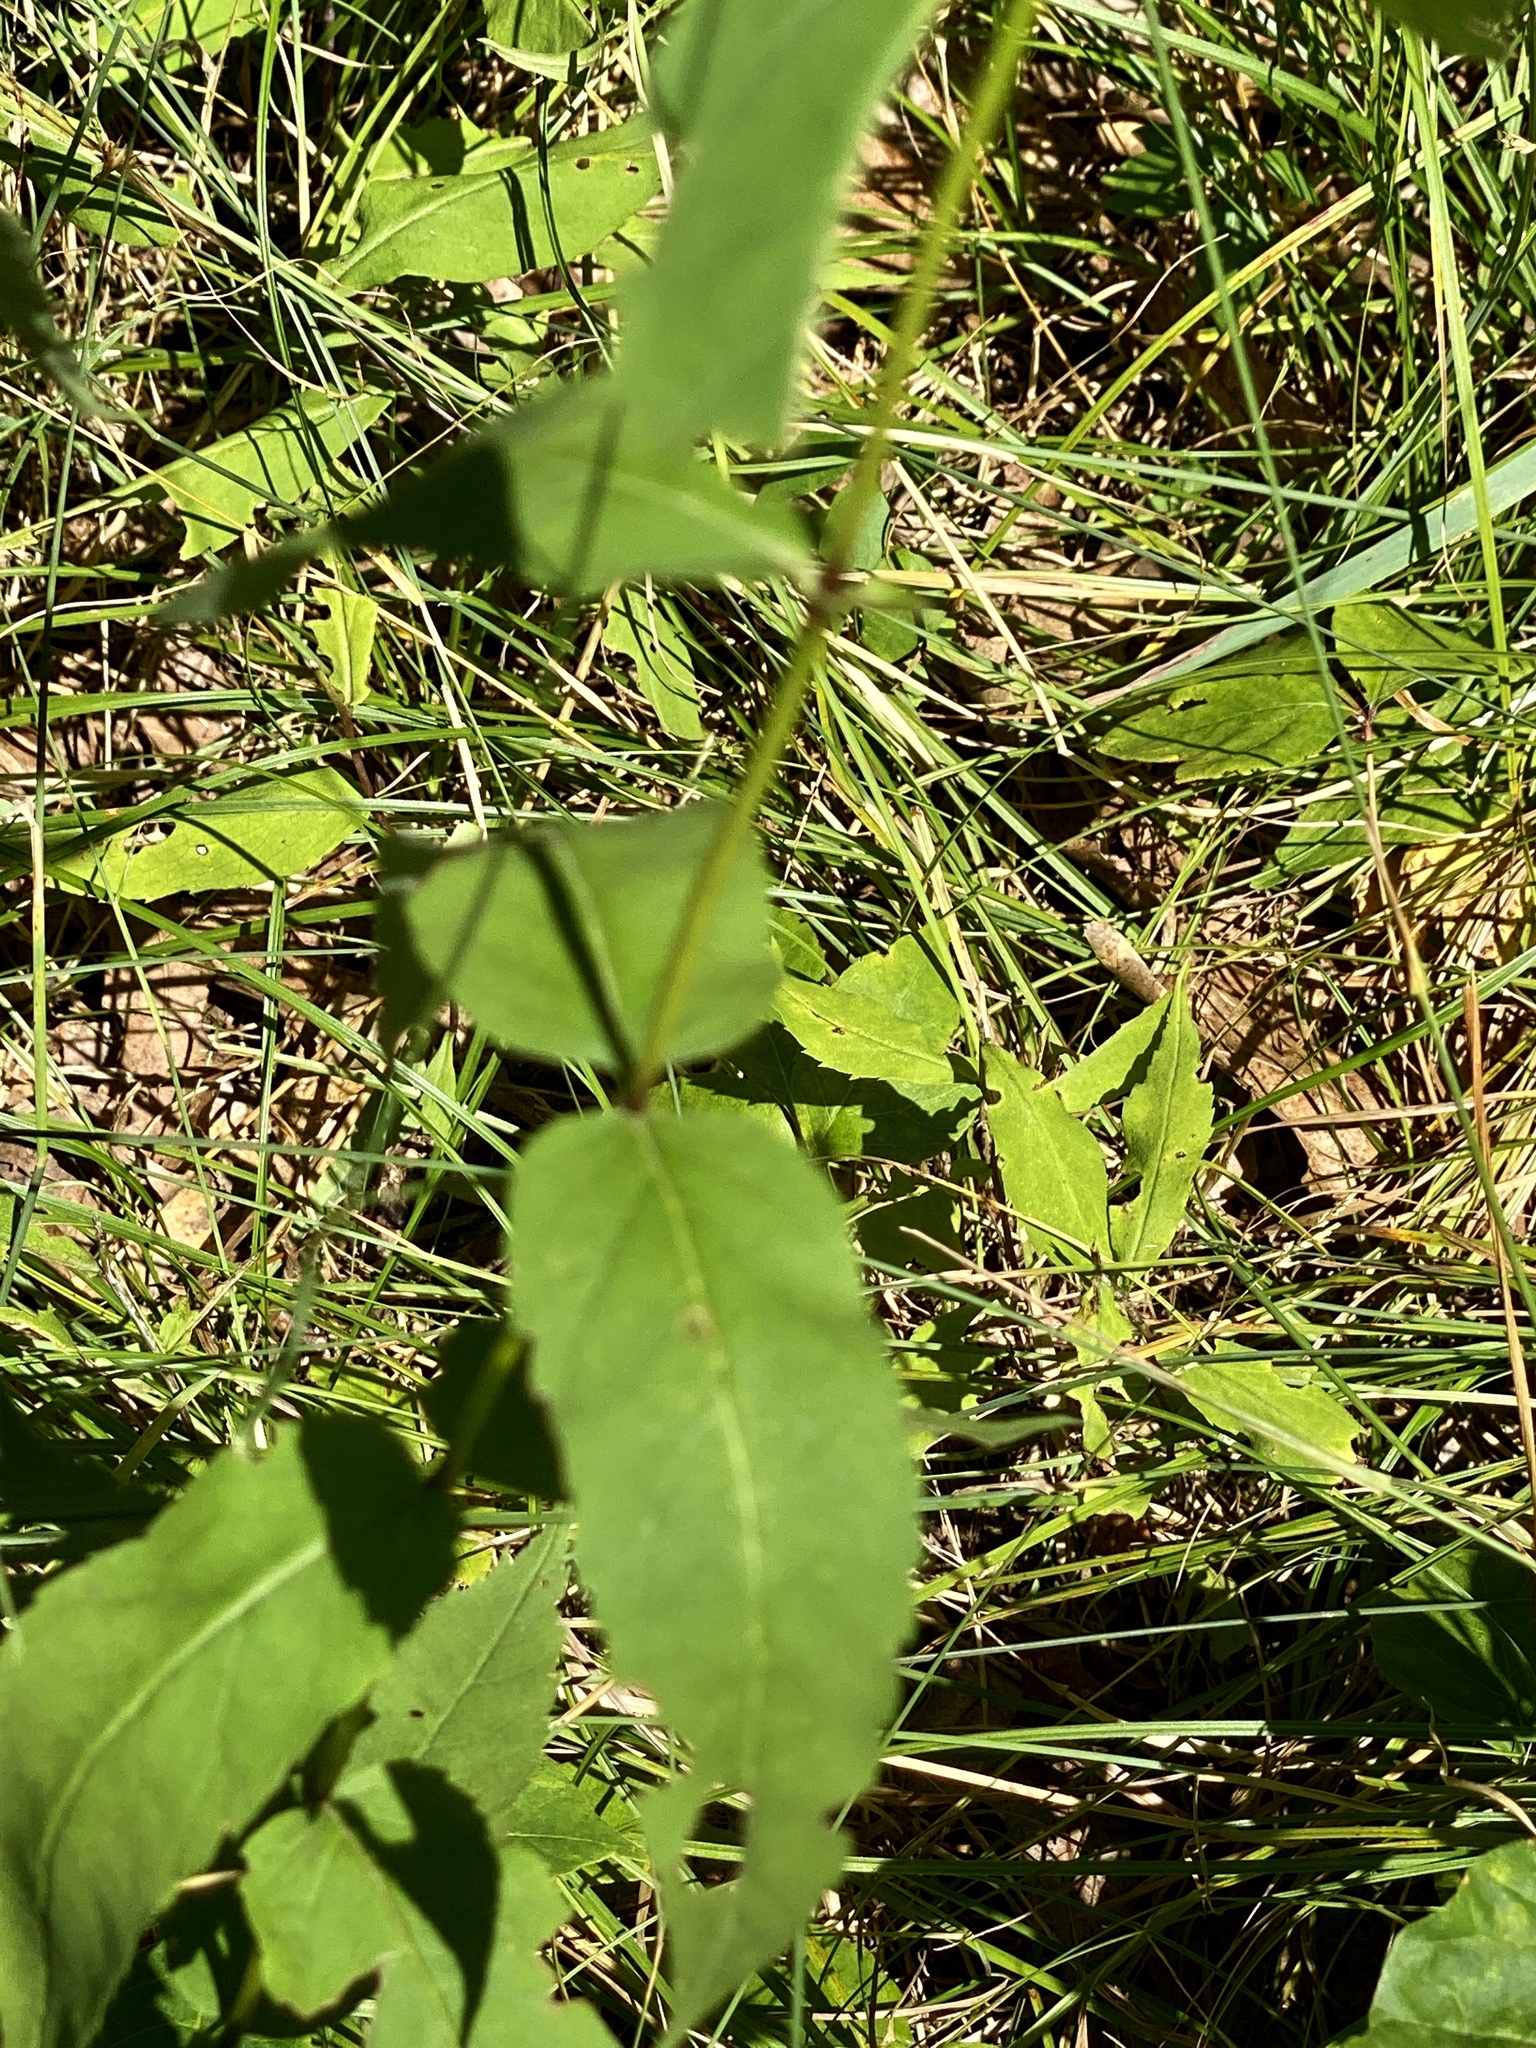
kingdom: Plantae
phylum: Tracheophyta
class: Magnoliopsida
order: Asterales
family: Asteraceae
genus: Eupatorium
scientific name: Eupatorium sessilifolium
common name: Upland boneset
